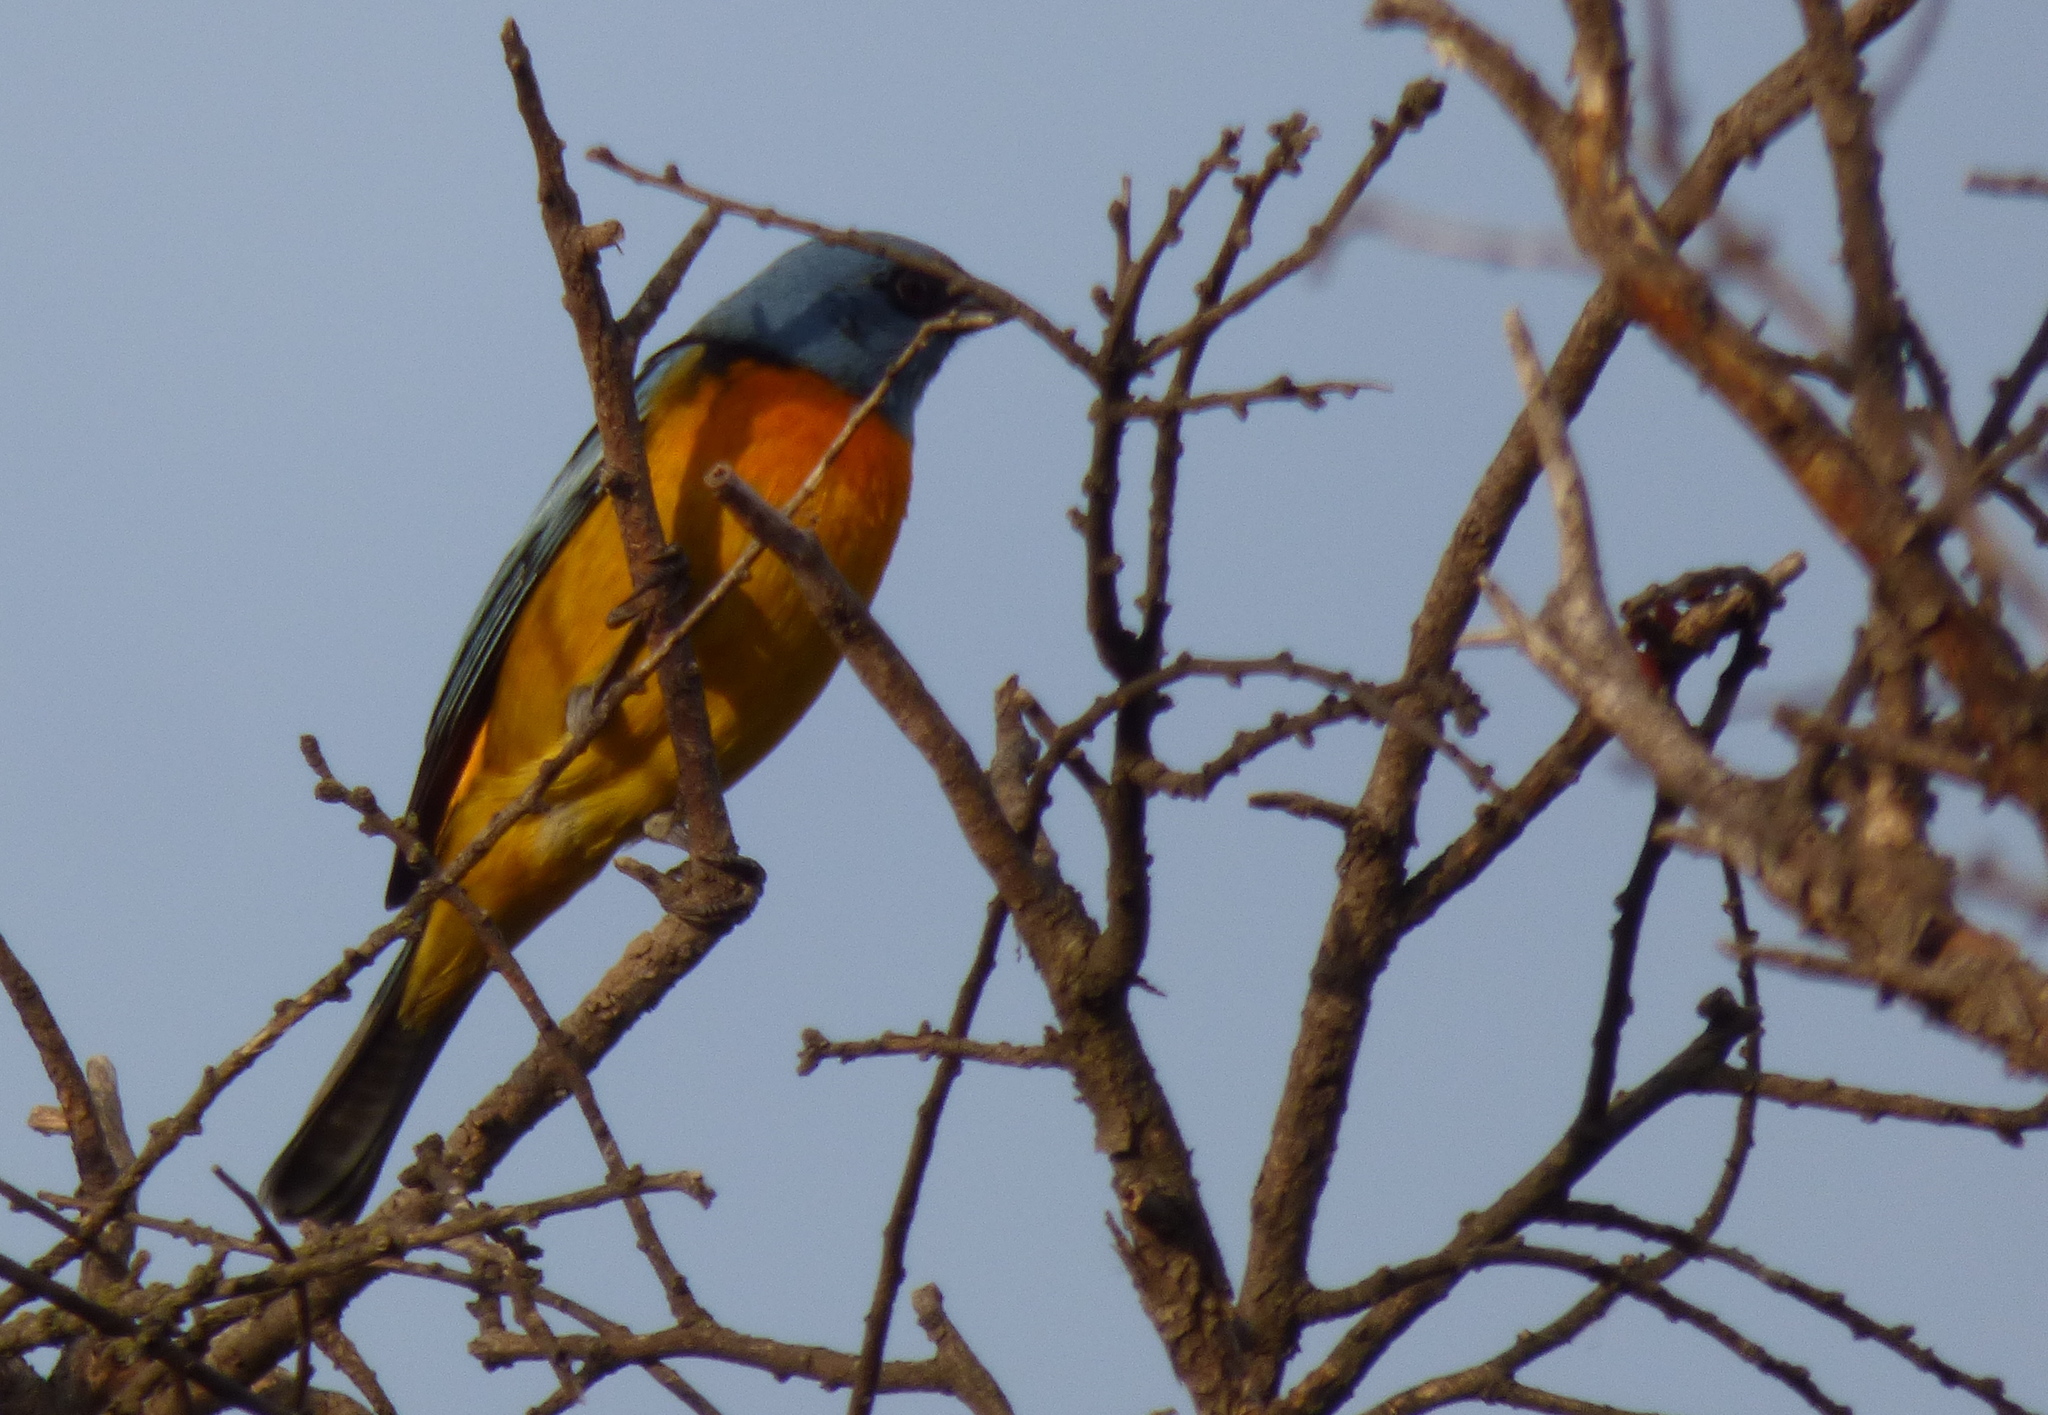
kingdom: Animalia
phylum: Chordata
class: Aves
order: Passeriformes
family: Thraupidae
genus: Rauenia
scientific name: Rauenia bonariensis
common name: Blue-and-yellow tanager
